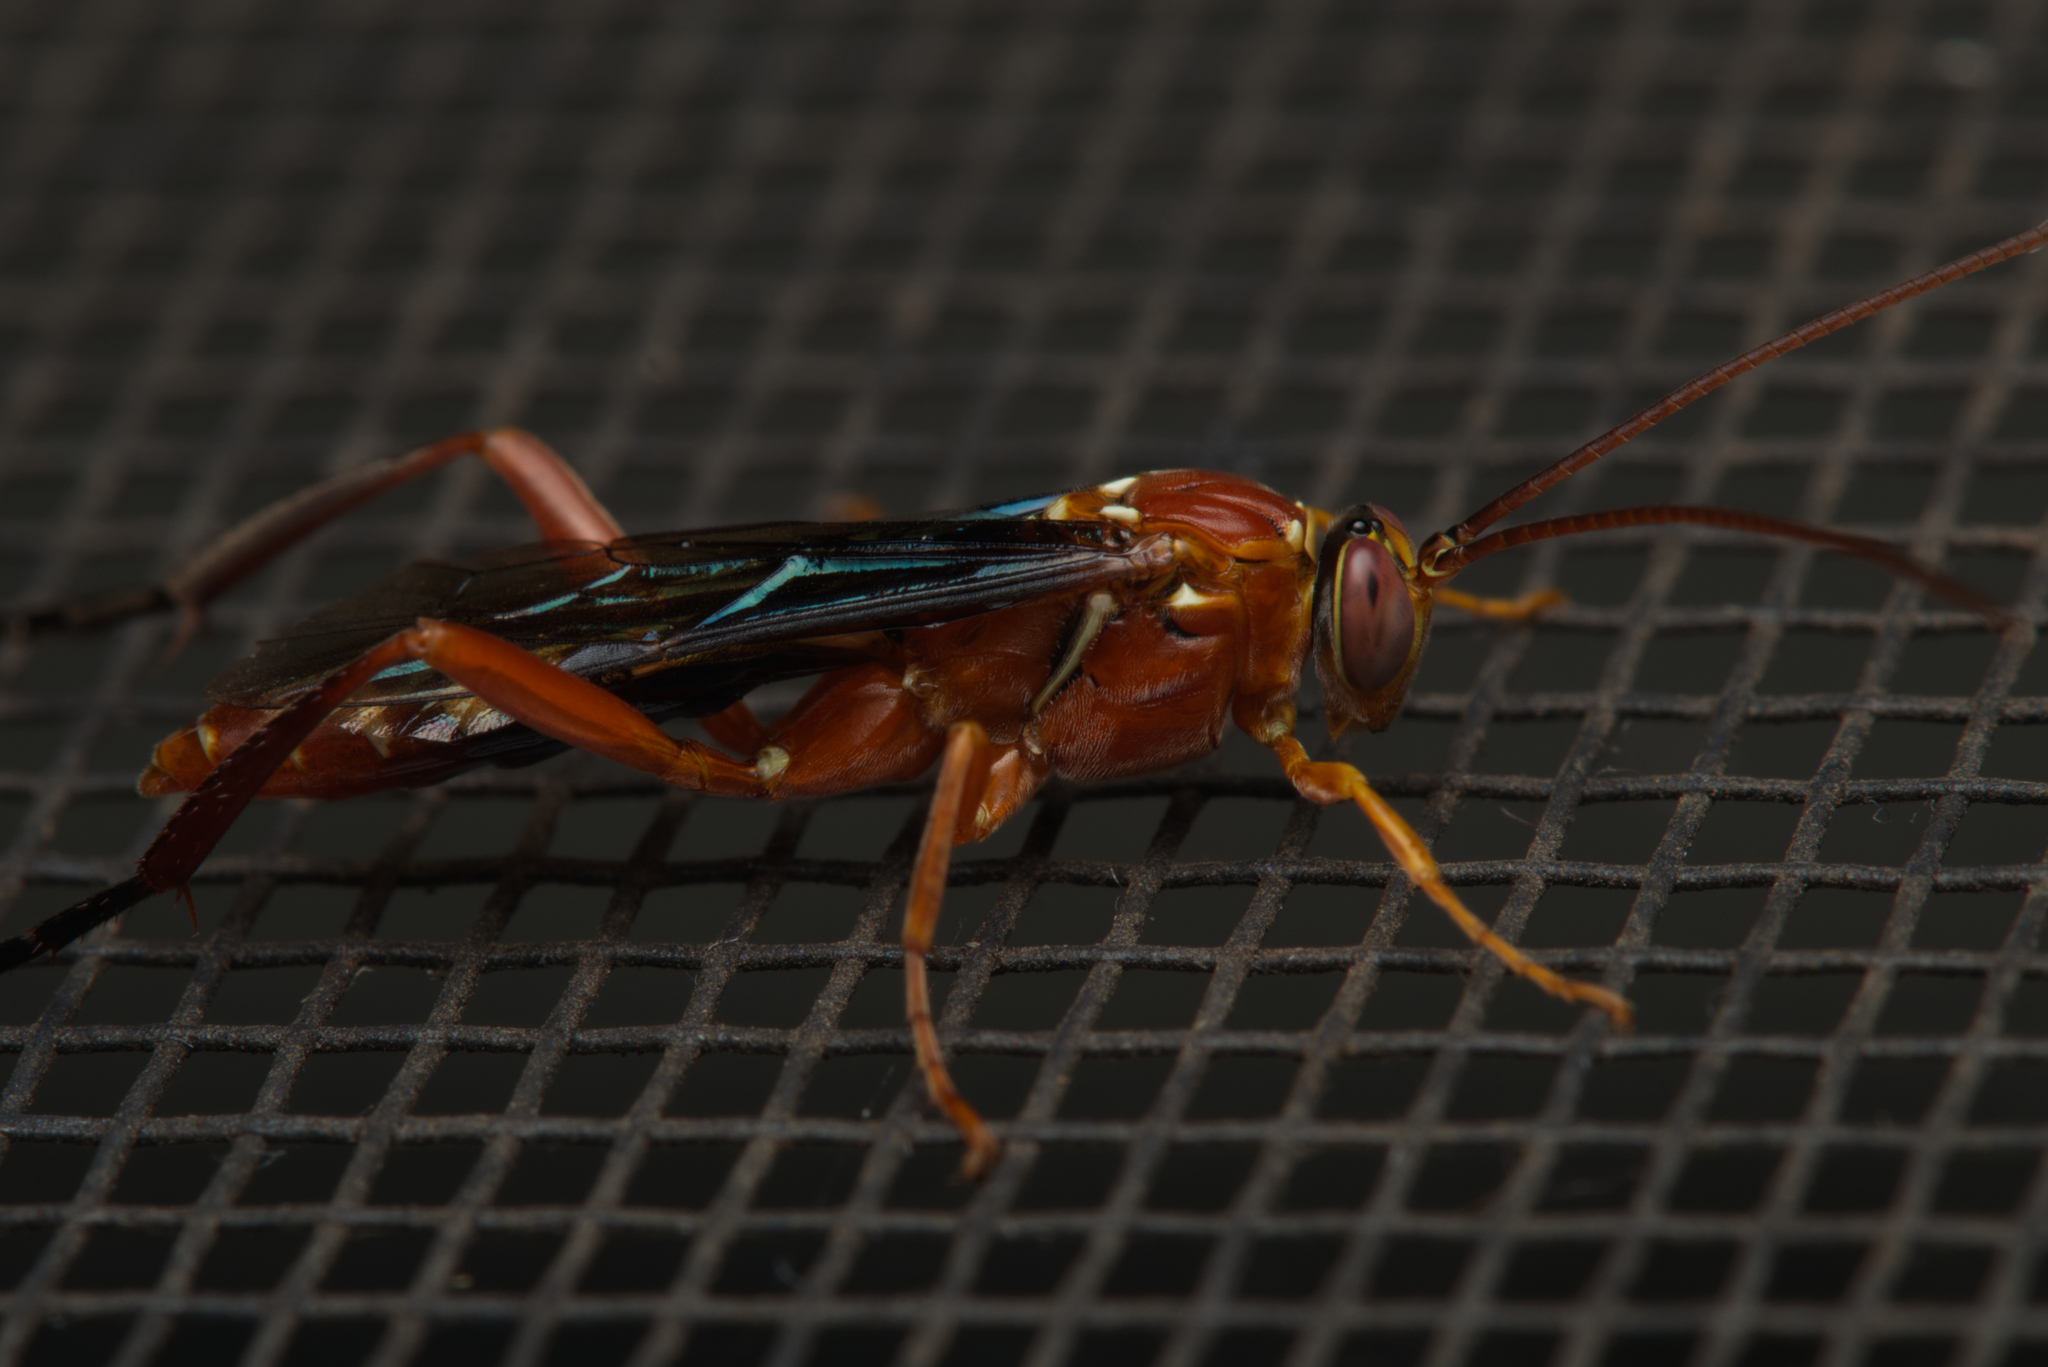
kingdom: Animalia
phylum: Arthropoda
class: Insecta
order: Hymenoptera
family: Ichneumonidae
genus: Lissopimpla
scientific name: Lissopimpla excelsa
